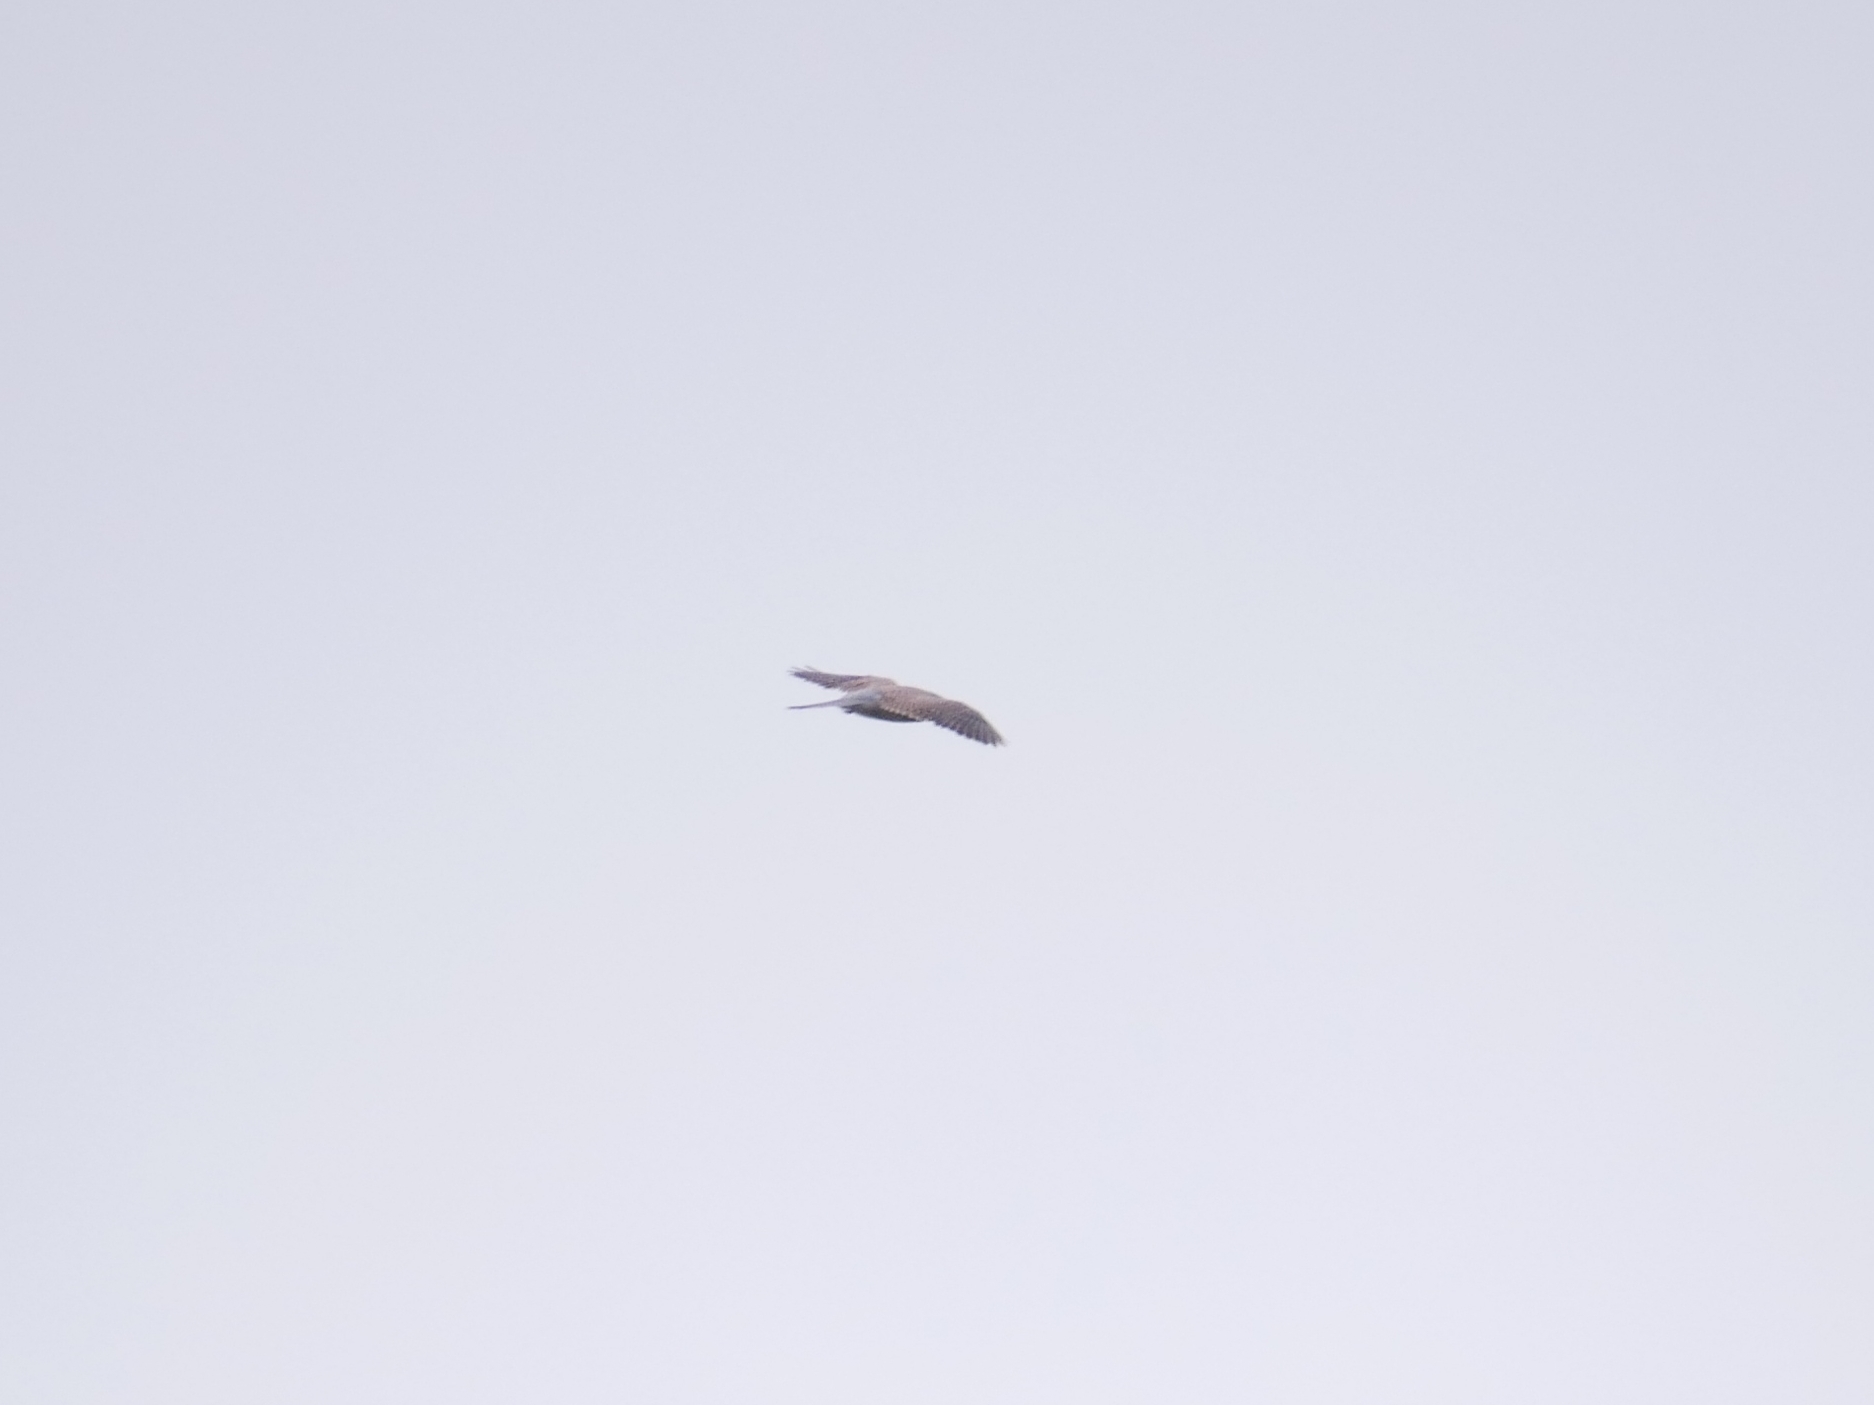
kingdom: Animalia
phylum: Chordata
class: Aves
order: Falconiformes
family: Falconidae
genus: Falco
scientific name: Falco tinnunculus
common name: Common kestrel
